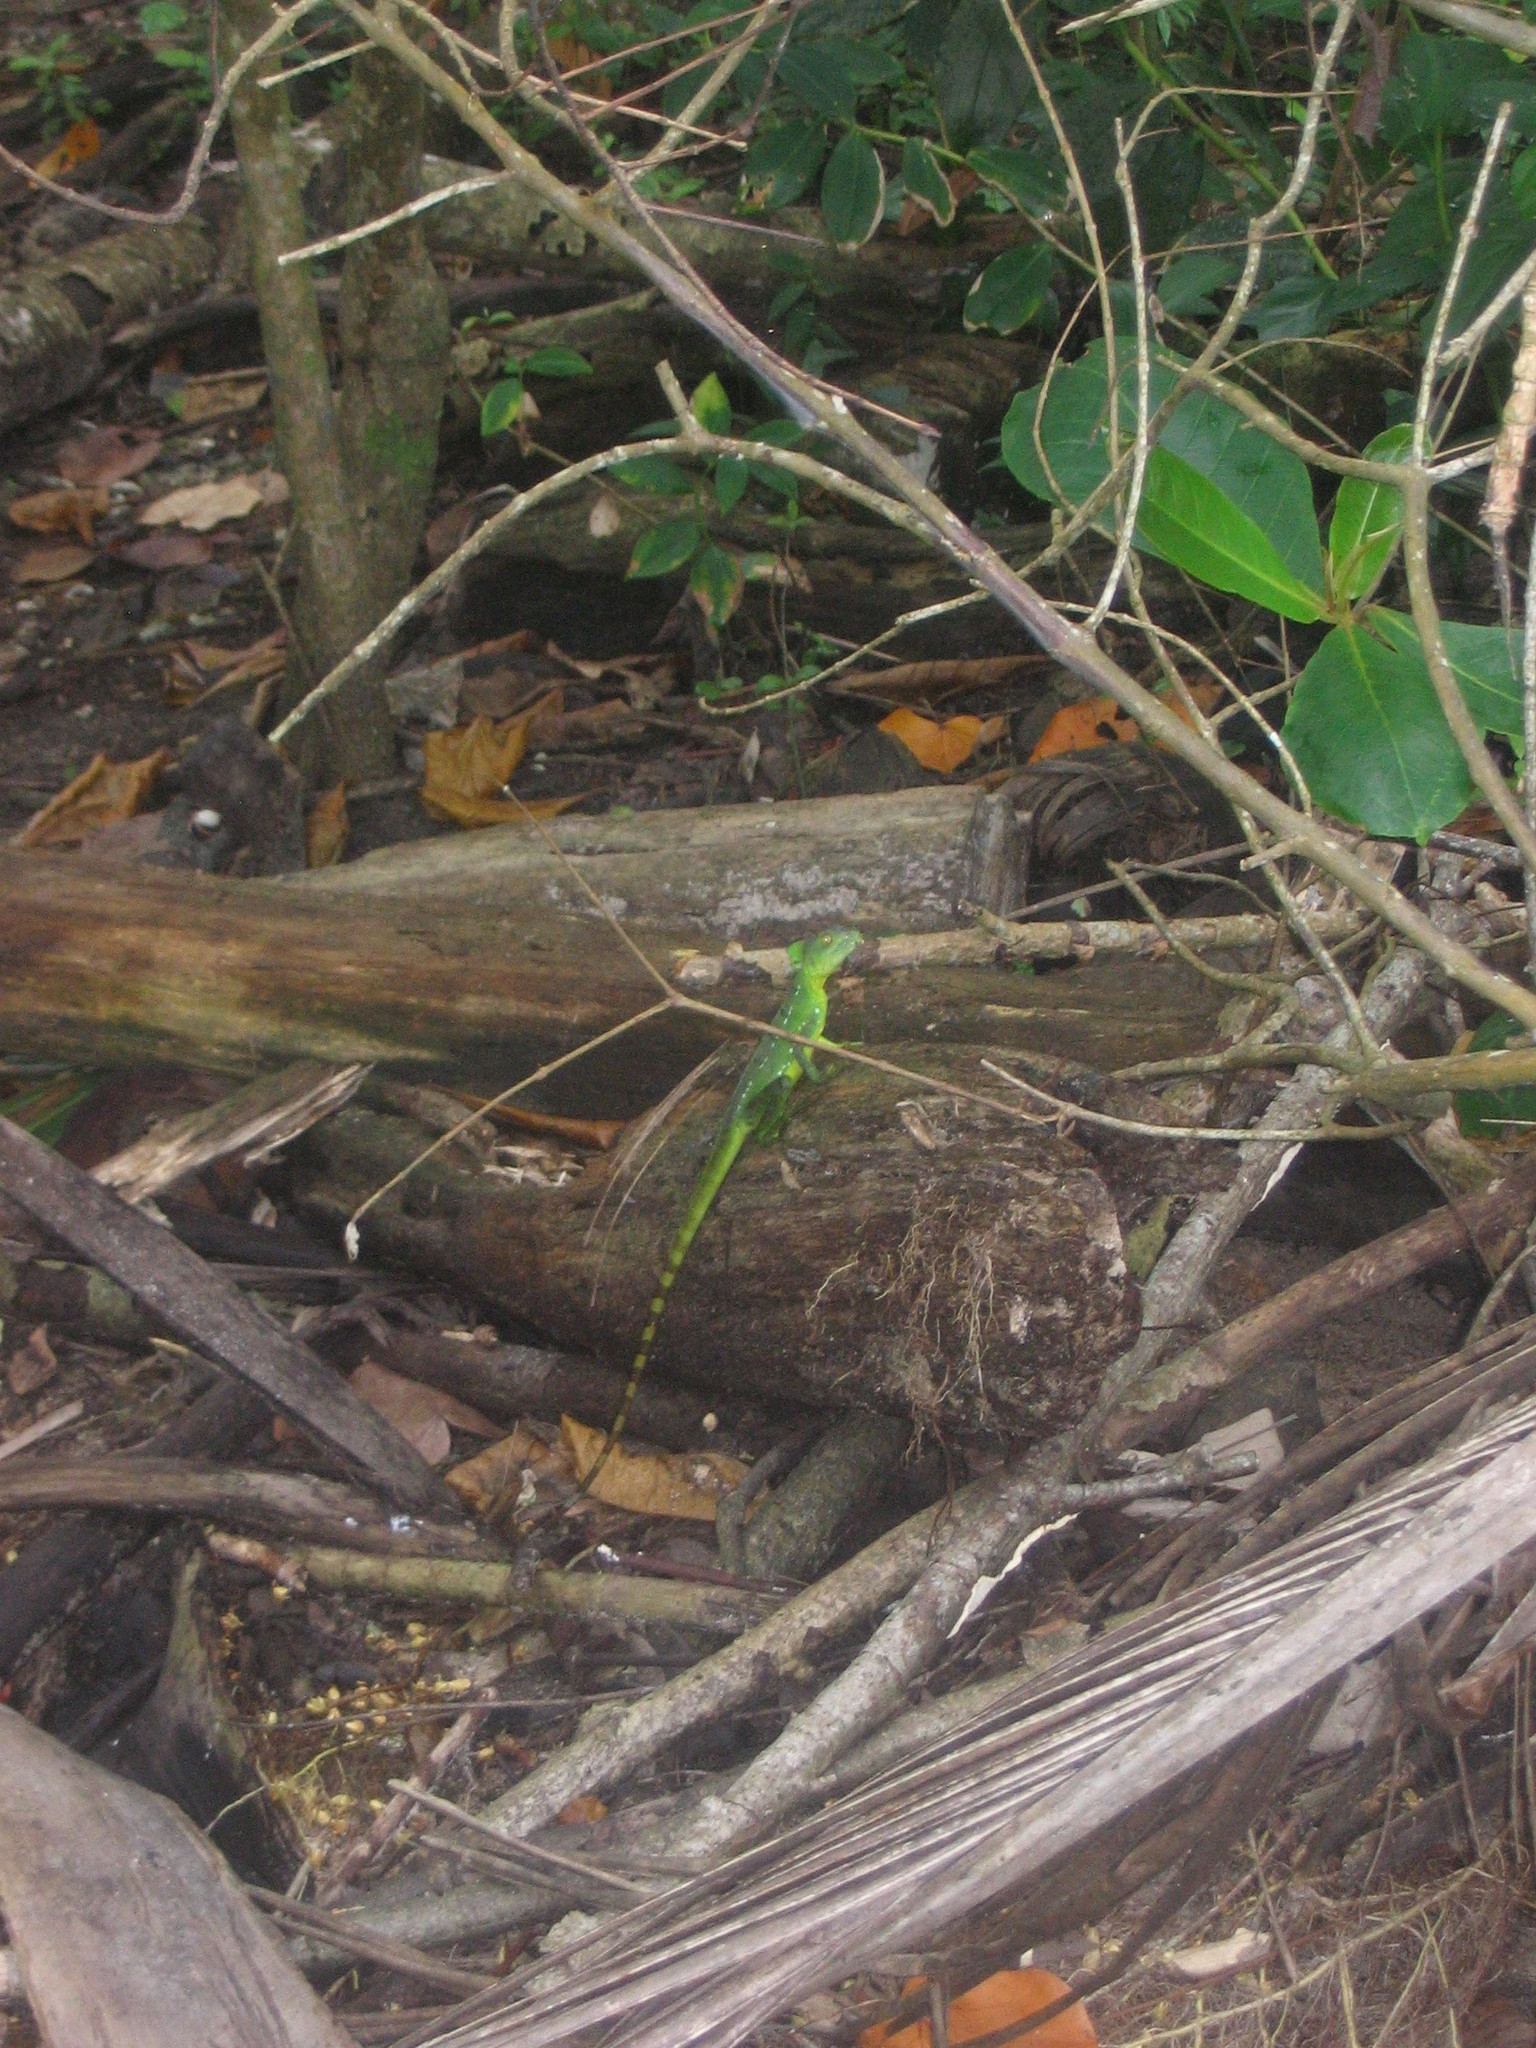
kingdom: Animalia
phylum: Chordata
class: Squamata
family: Corytophanidae
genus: Basiliscus
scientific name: Basiliscus plumifrons
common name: Green basilisk
